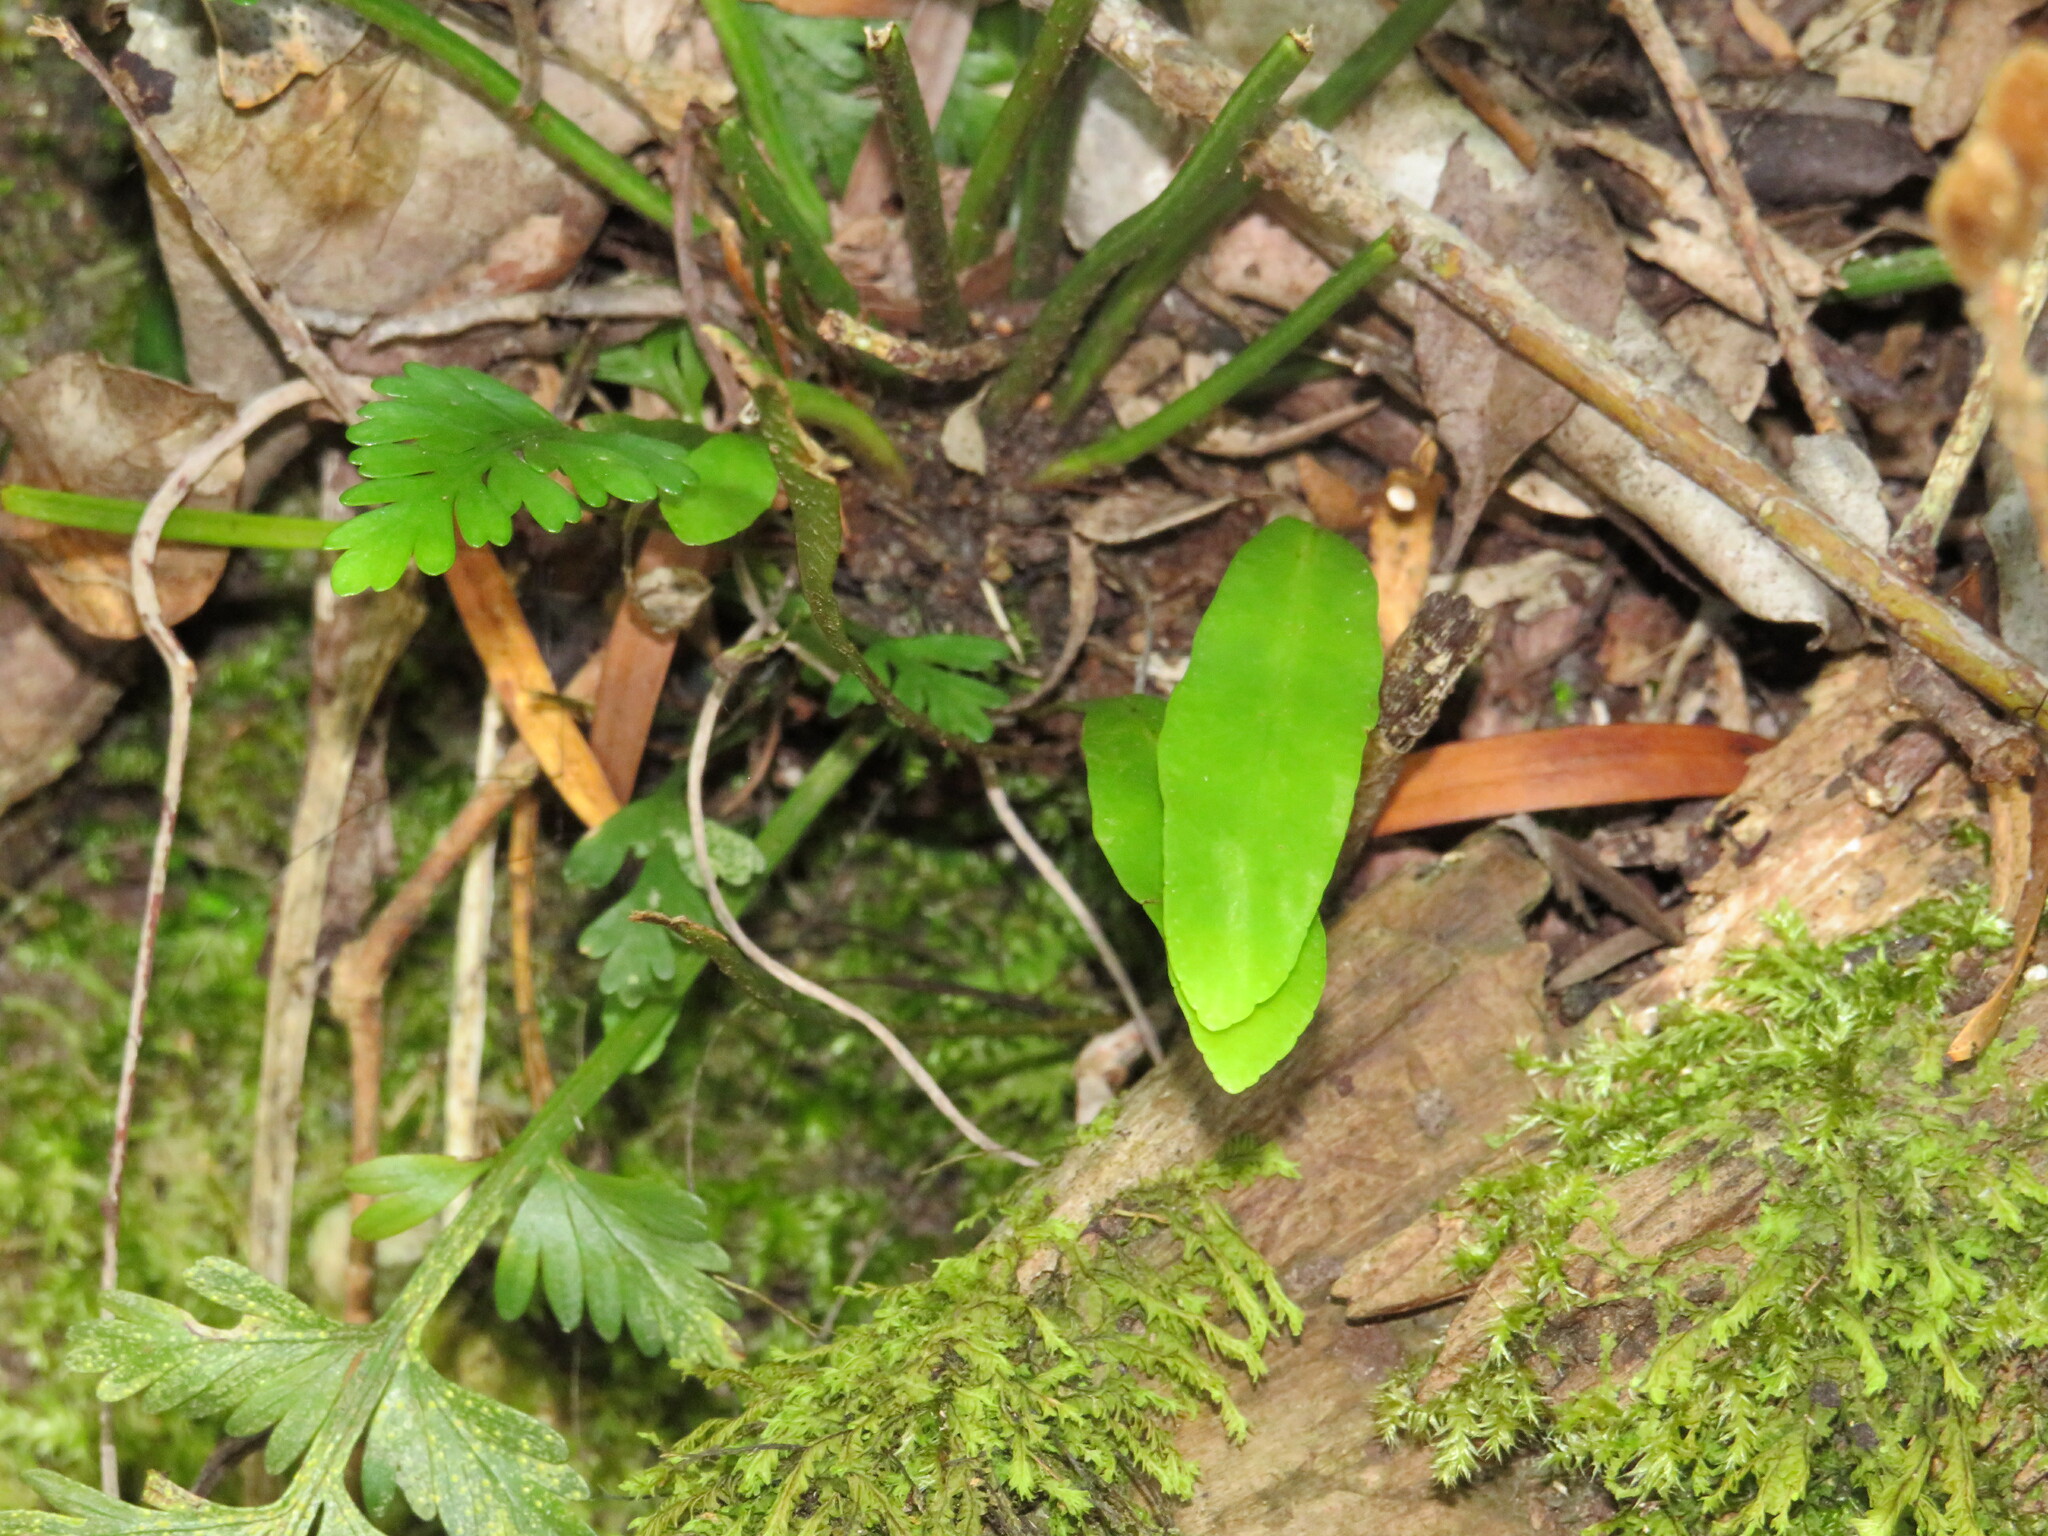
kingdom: Plantae
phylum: Tracheophyta
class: Polypodiopsida
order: Polypodiales
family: Dryopteridaceae
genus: Elaphoglossum
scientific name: Elaphoglossum angustatum
